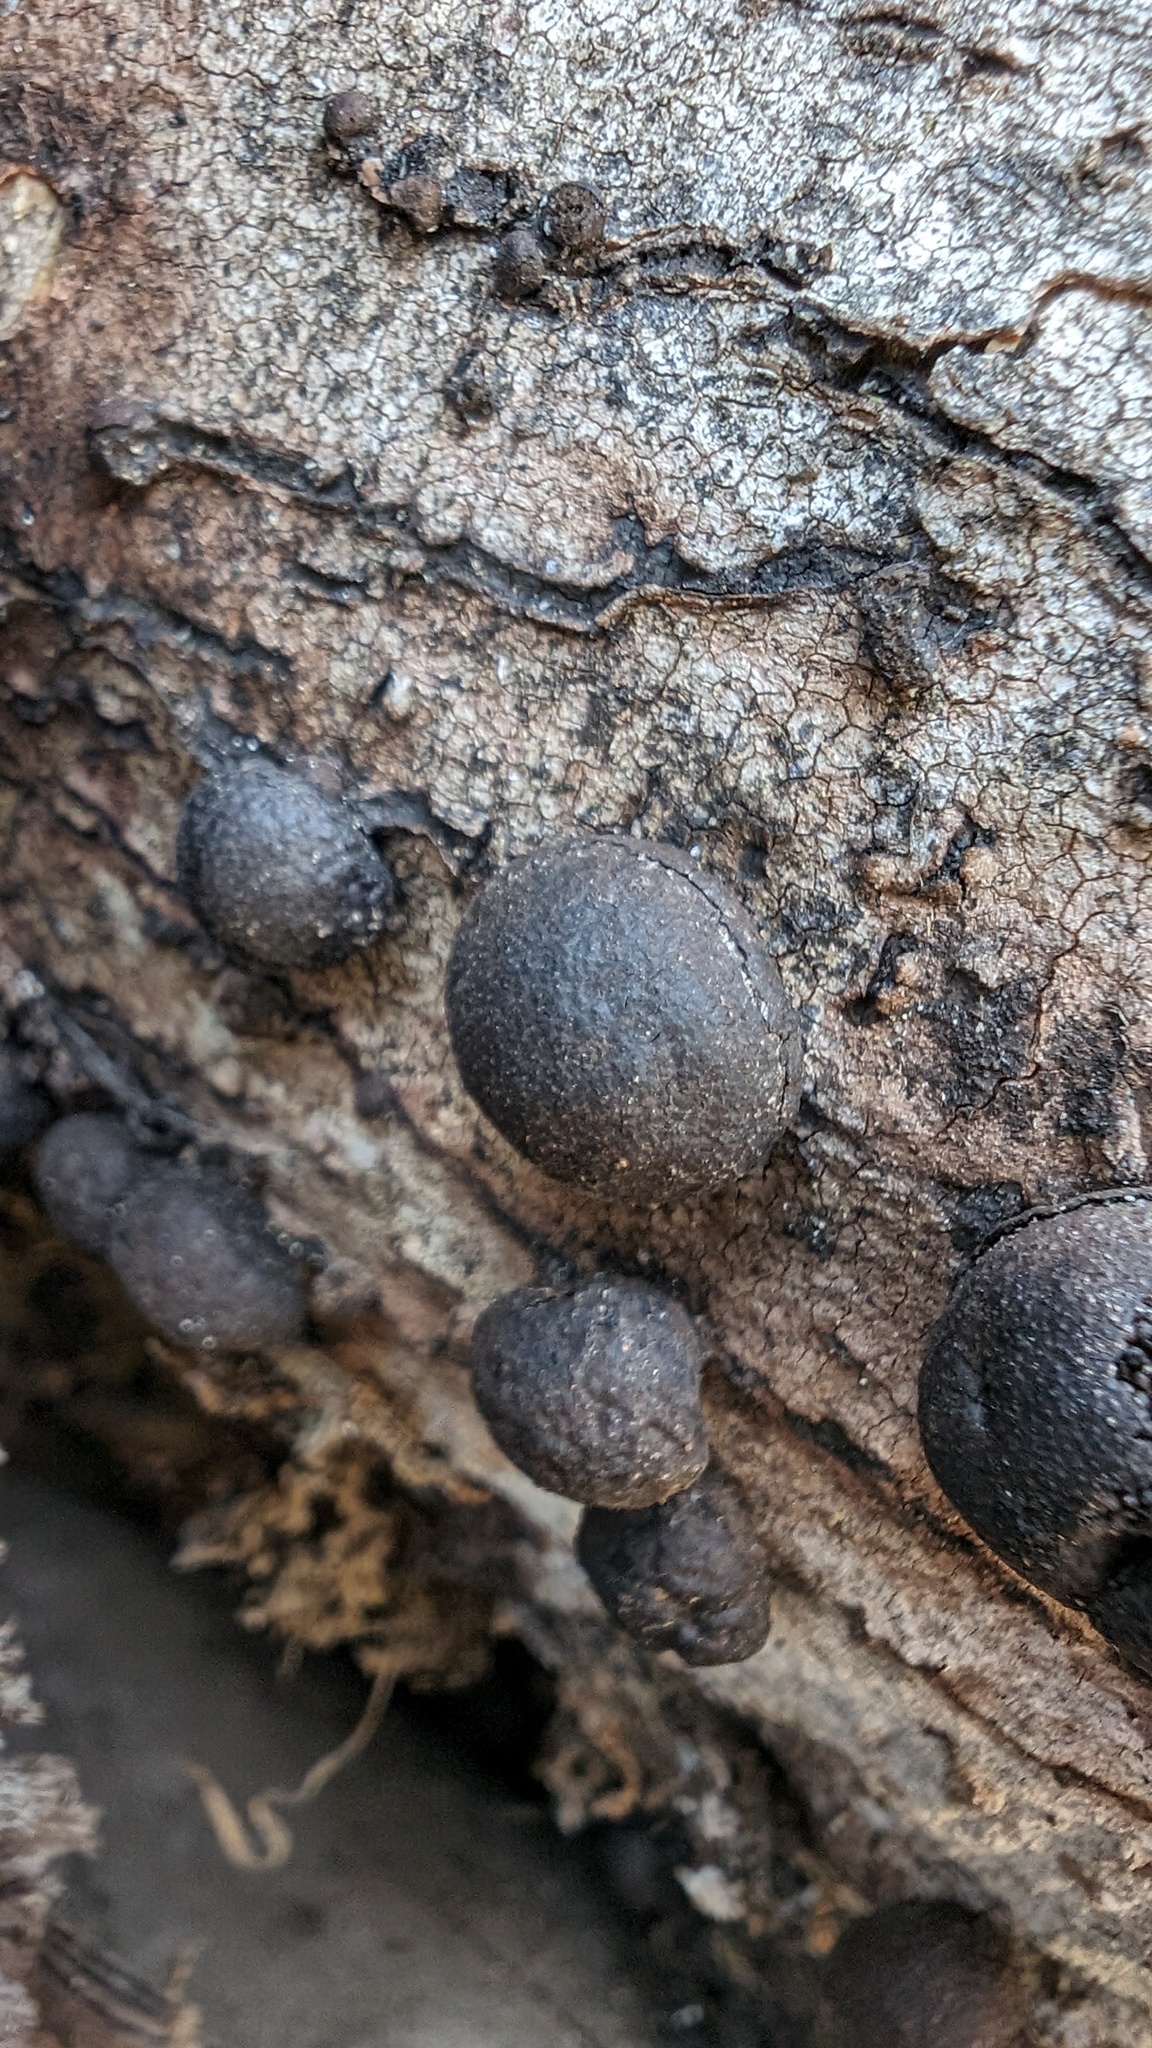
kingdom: Fungi
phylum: Ascomycota
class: Sordariomycetes
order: Xylariales
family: Hypoxylaceae
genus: Annulohypoxylon
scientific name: Annulohypoxylon truncatum
